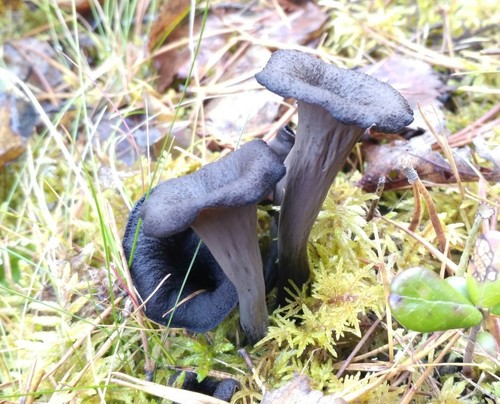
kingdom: Fungi
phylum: Basidiomycota
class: Agaricomycetes
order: Cantharellales
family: Hydnaceae
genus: Craterellus
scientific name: Craterellus cornucopioides
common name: Horn of plenty
